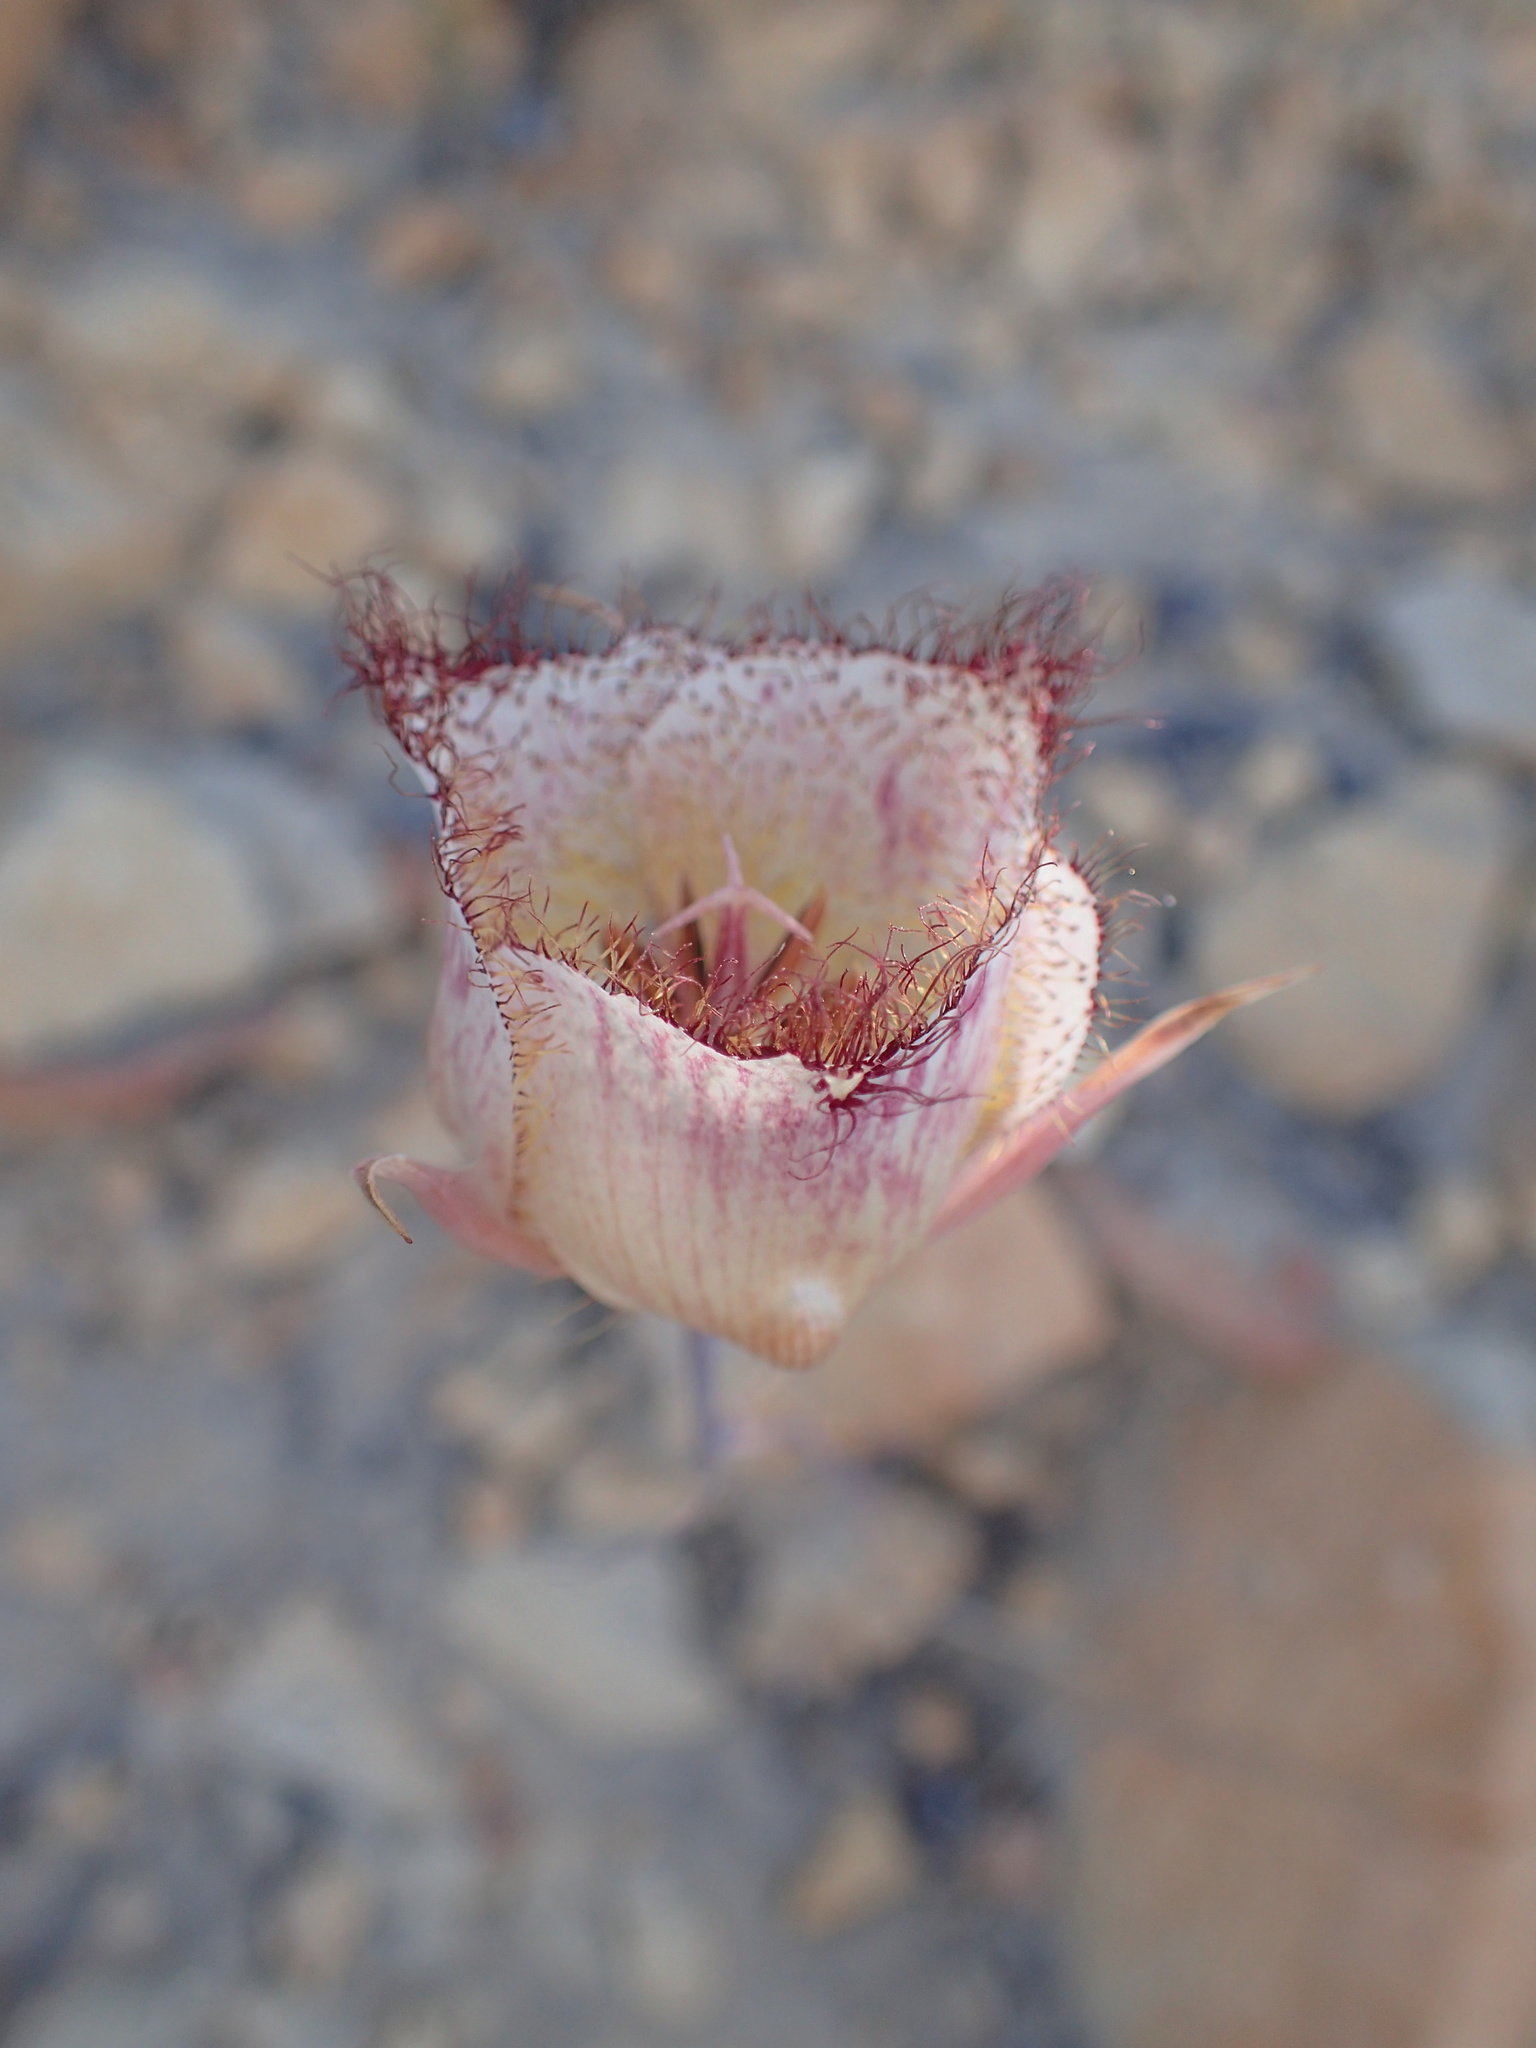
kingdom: Plantae
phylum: Tracheophyta
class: Liliopsida
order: Liliales
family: Liliaceae
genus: Calochortus
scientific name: Calochortus fimbriatus
